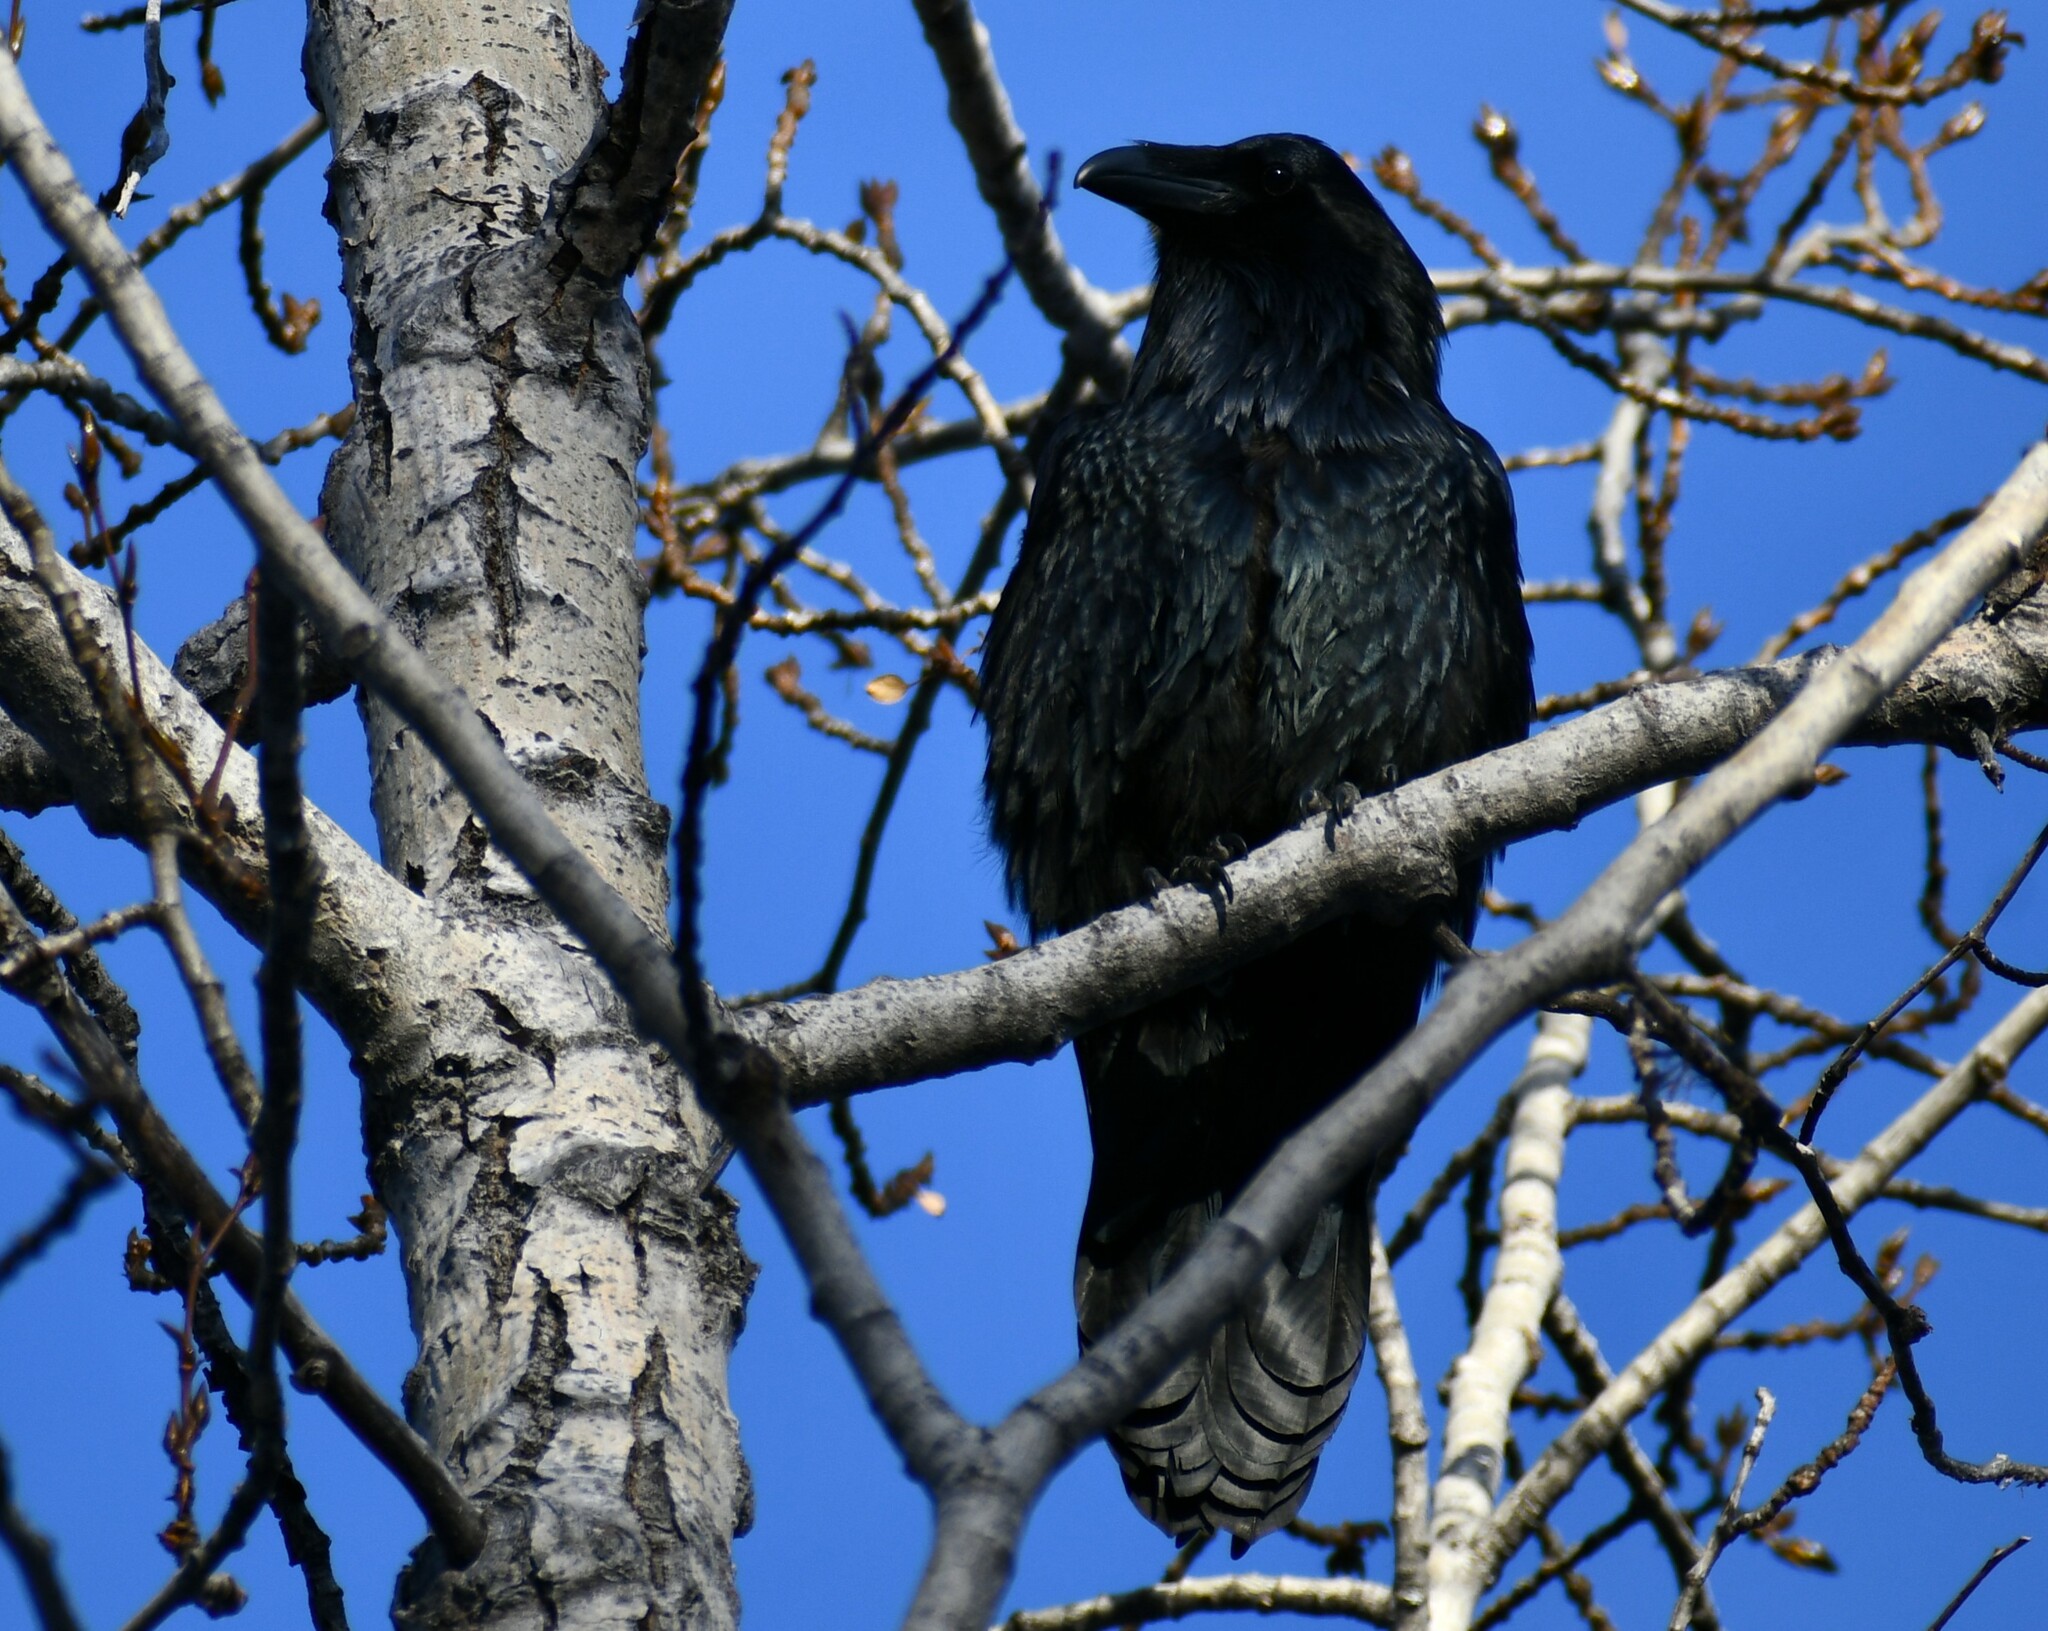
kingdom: Animalia
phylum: Chordata
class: Aves
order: Passeriformes
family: Corvidae
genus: Corvus
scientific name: Corvus corax
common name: Common raven
